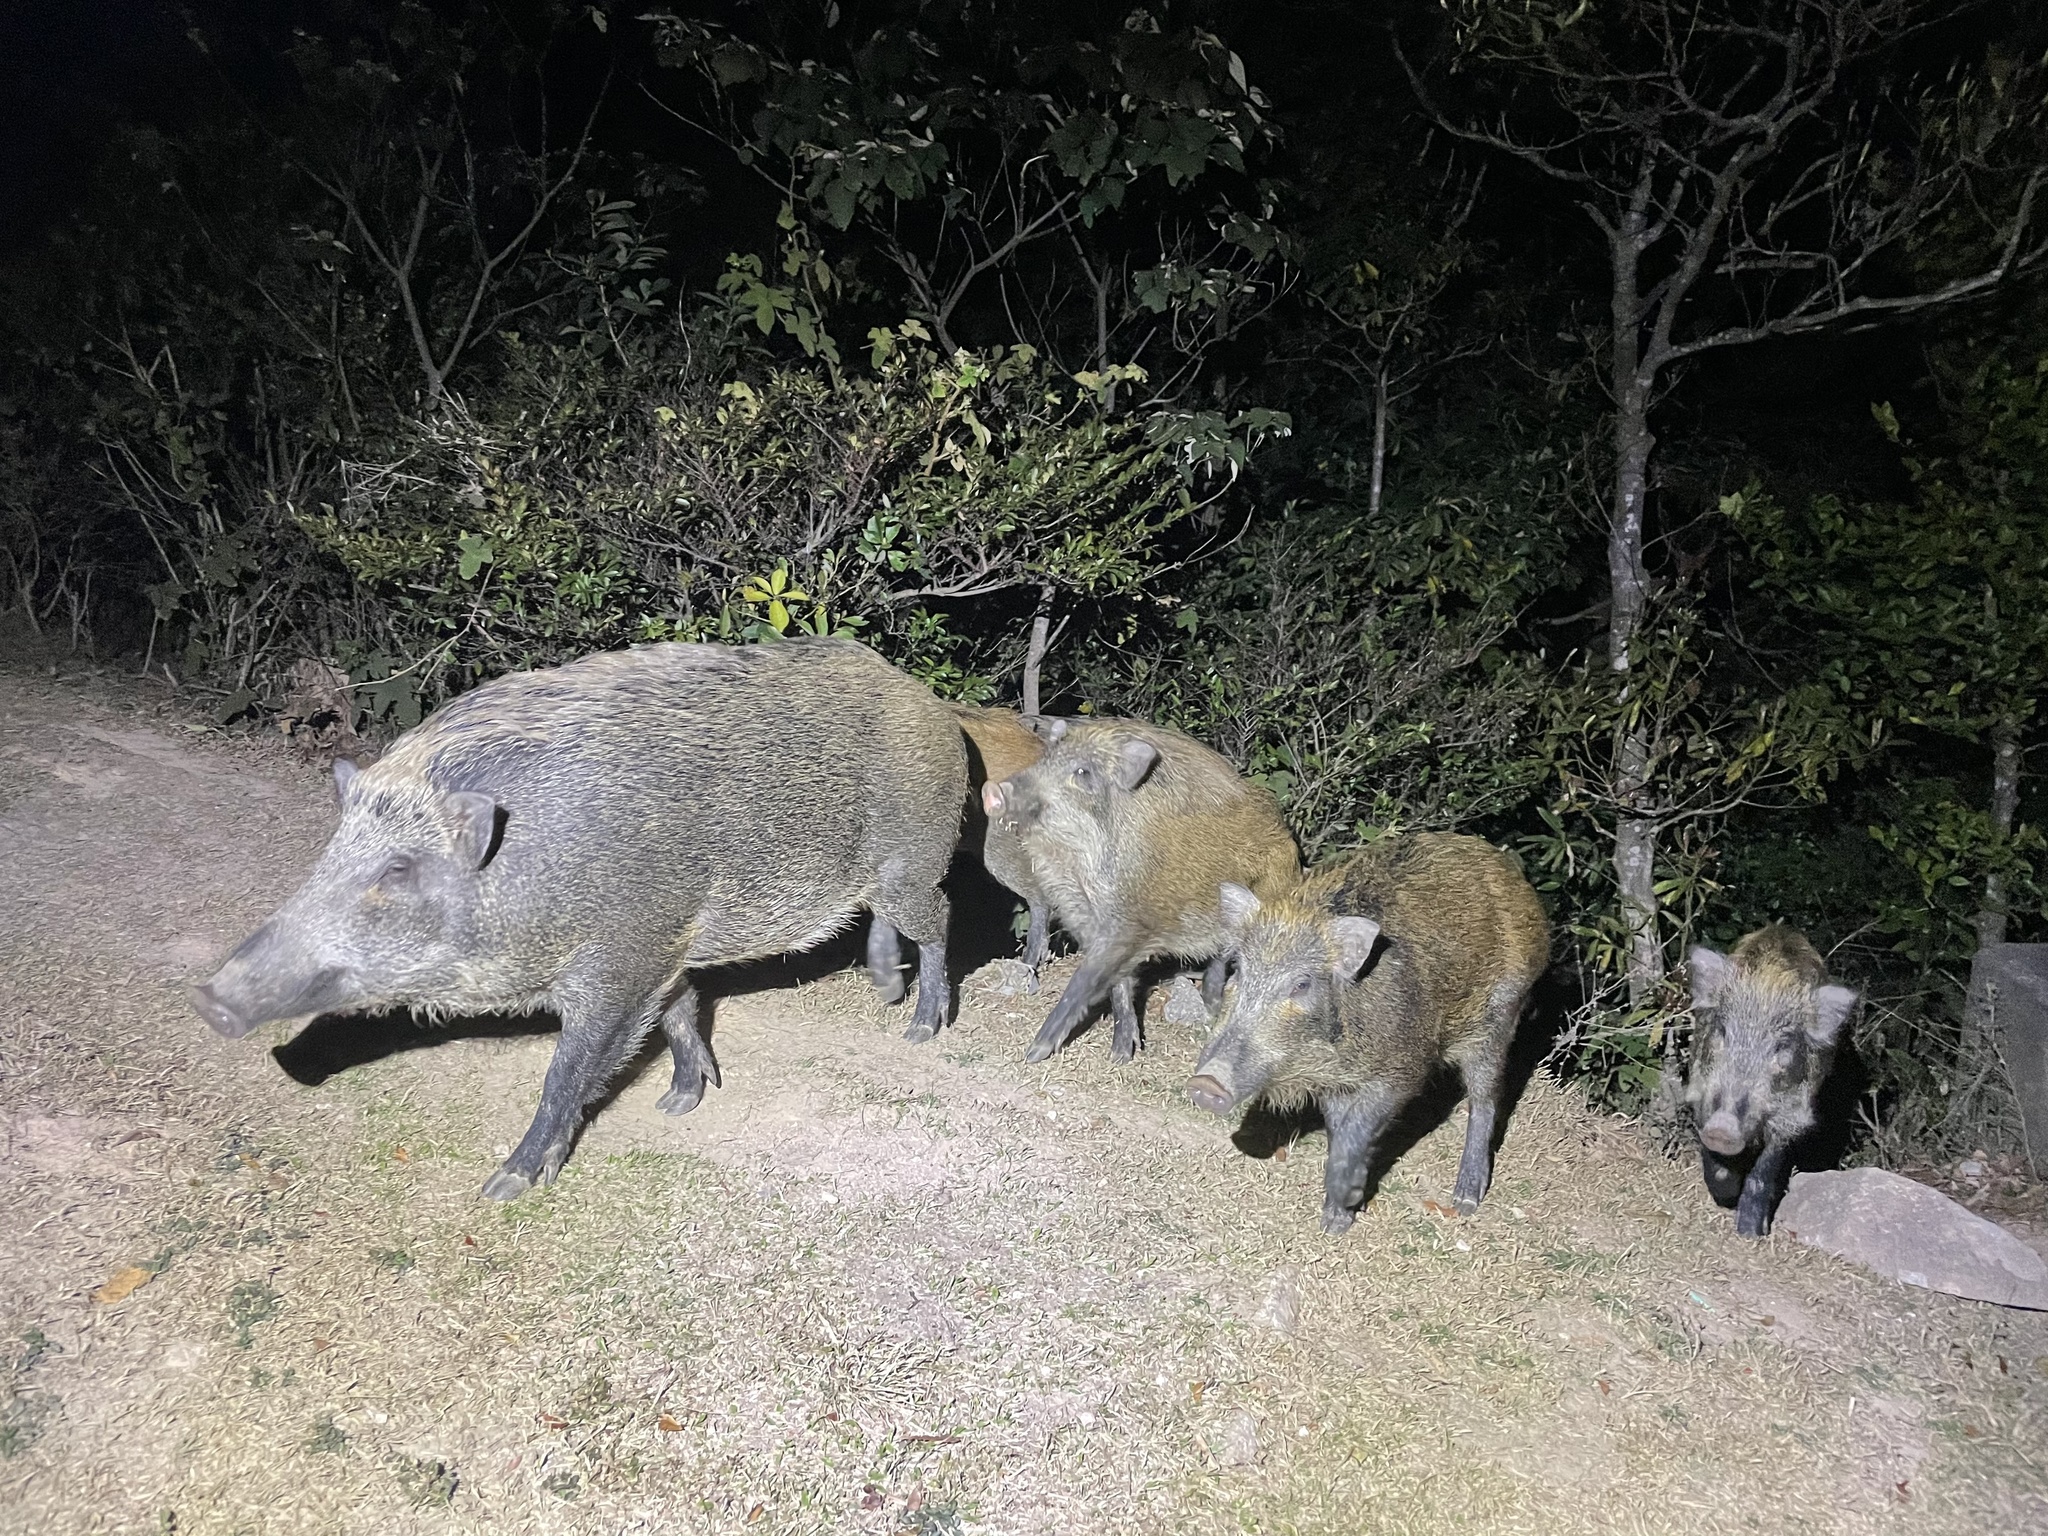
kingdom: Animalia
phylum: Chordata
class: Mammalia
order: Artiodactyla
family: Suidae
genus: Sus
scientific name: Sus scrofa
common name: Wild boar
